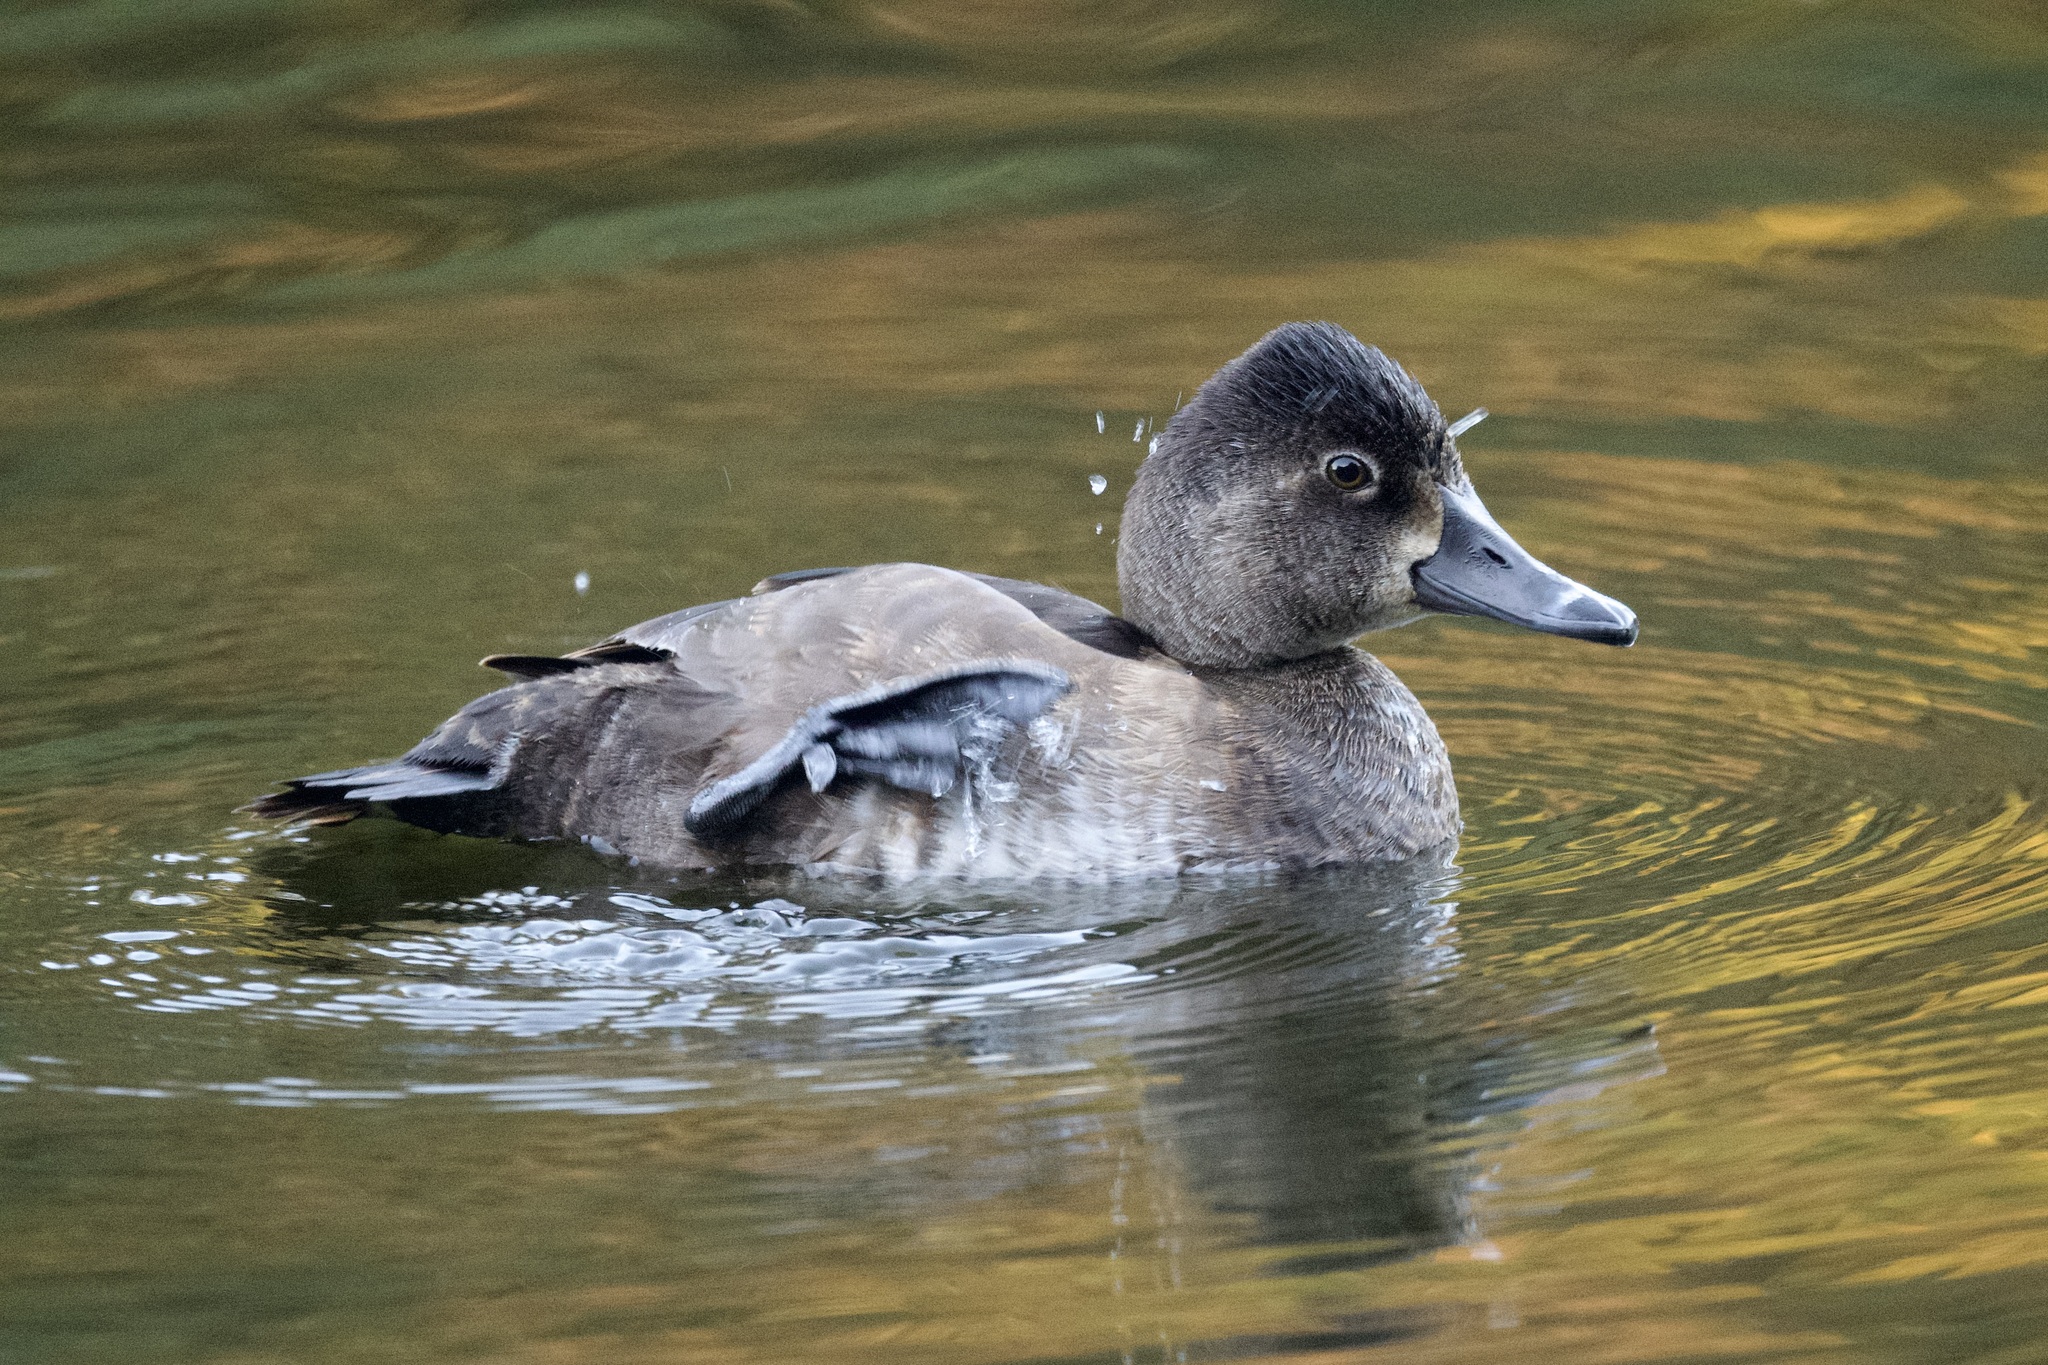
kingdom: Animalia
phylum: Chordata
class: Aves
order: Anseriformes
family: Anatidae
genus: Aythya
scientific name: Aythya collaris
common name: Ring-necked duck
